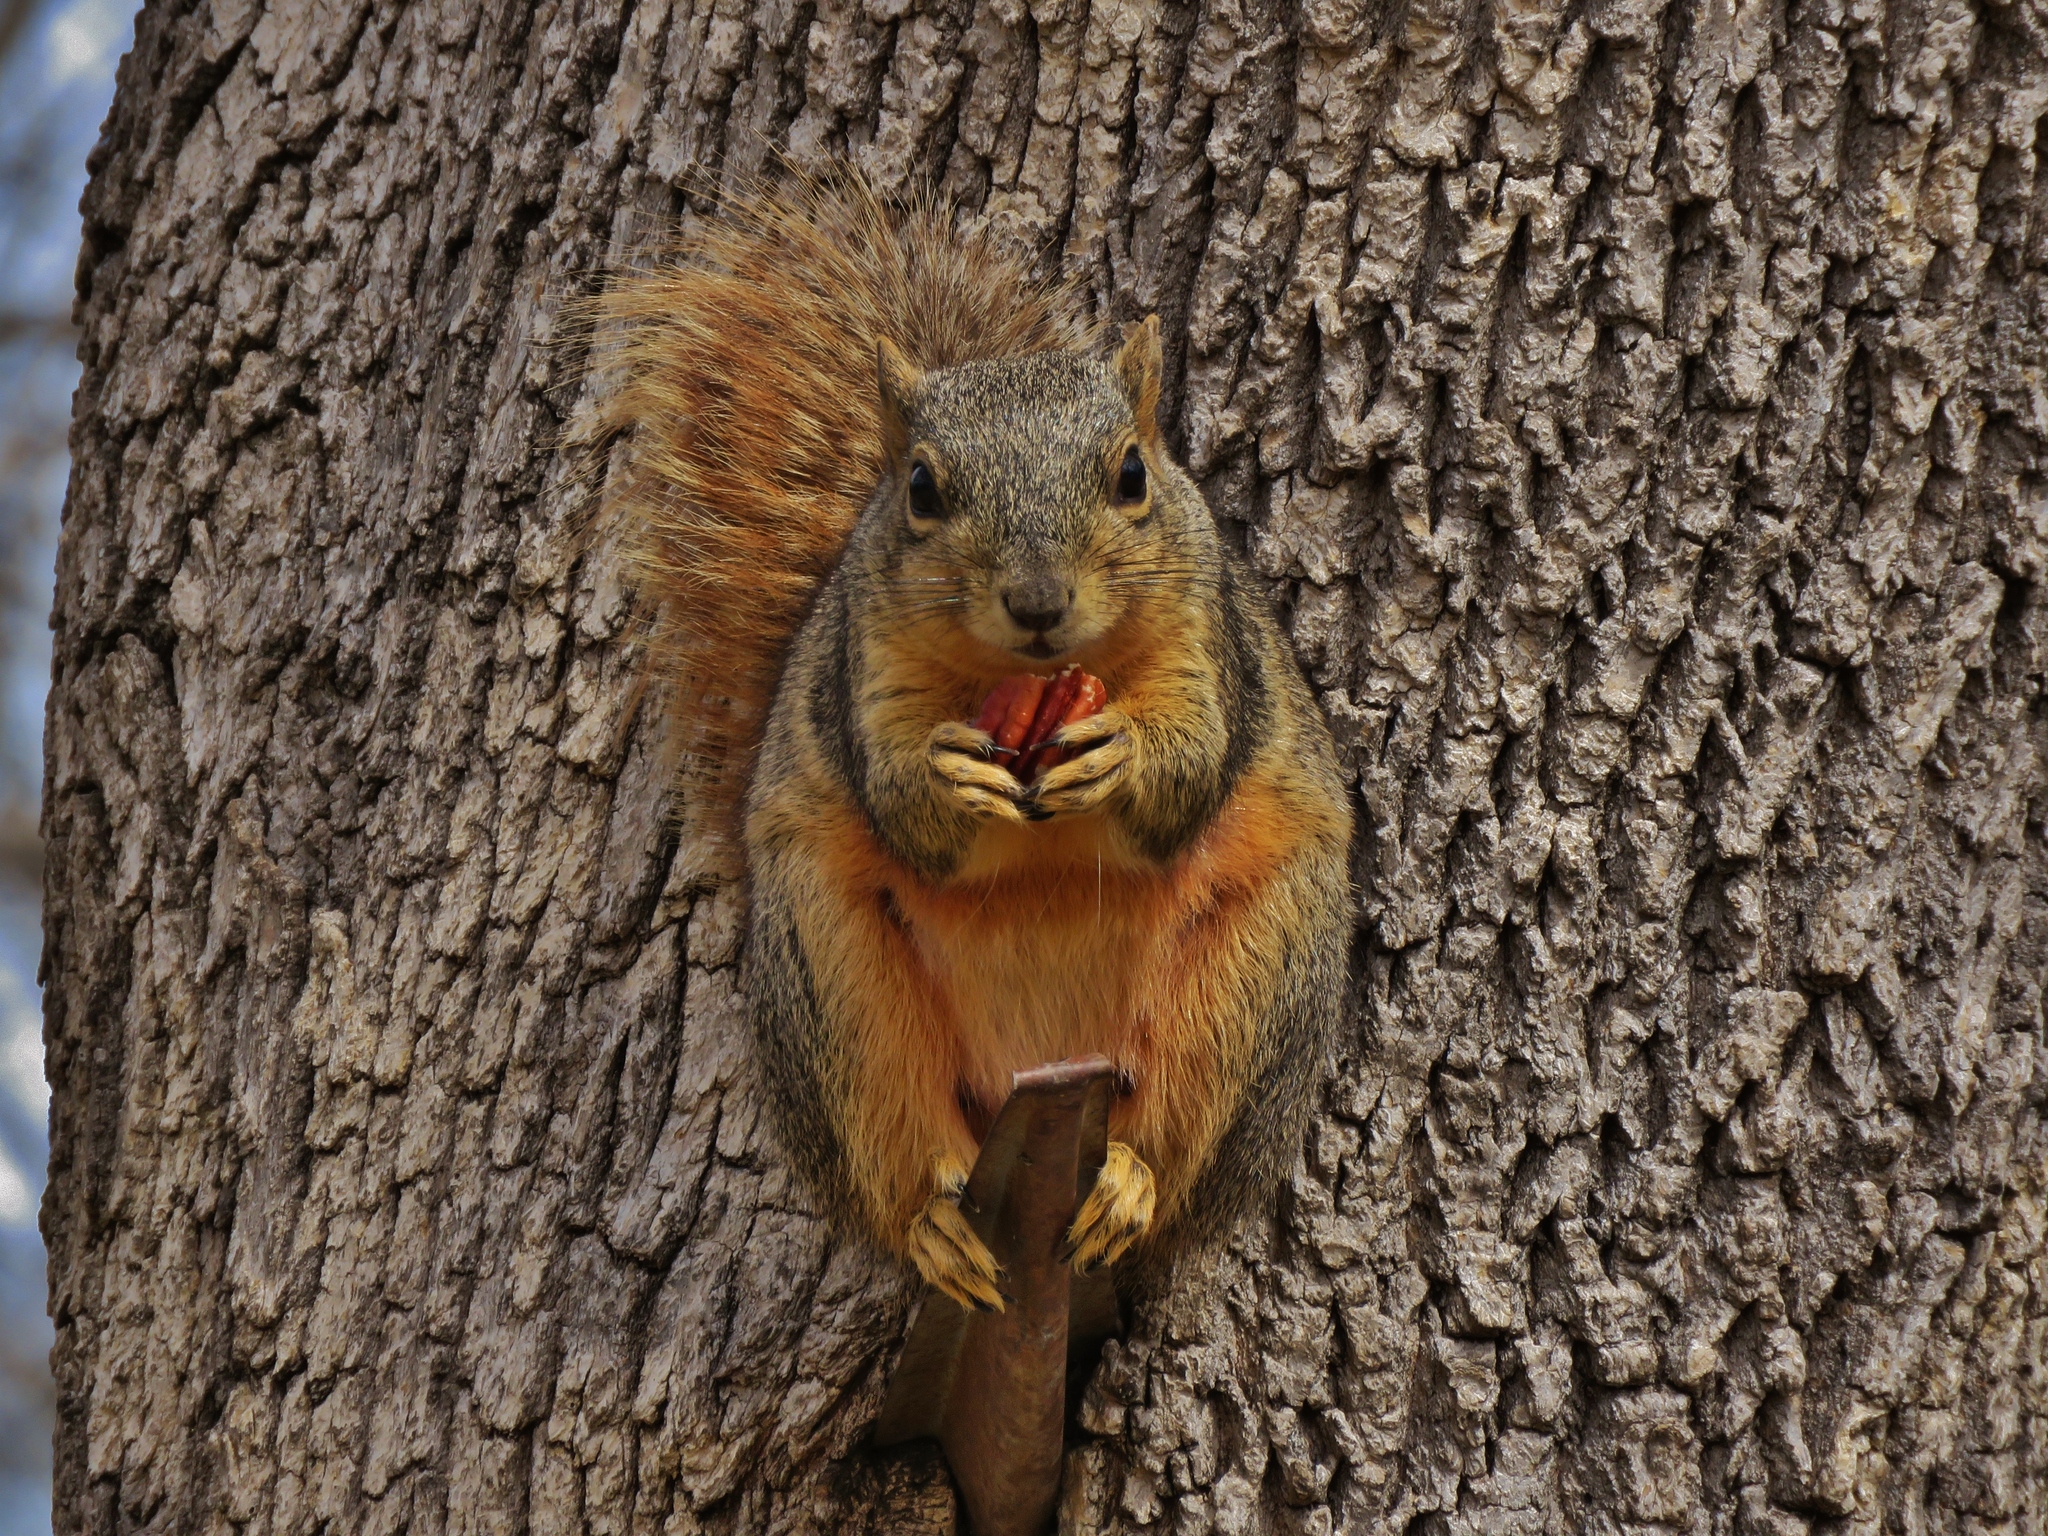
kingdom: Animalia
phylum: Chordata
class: Mammalia
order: Rodentia
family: Sciuridae
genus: Sciurus
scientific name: Sciurus niger
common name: Fox squirrel
